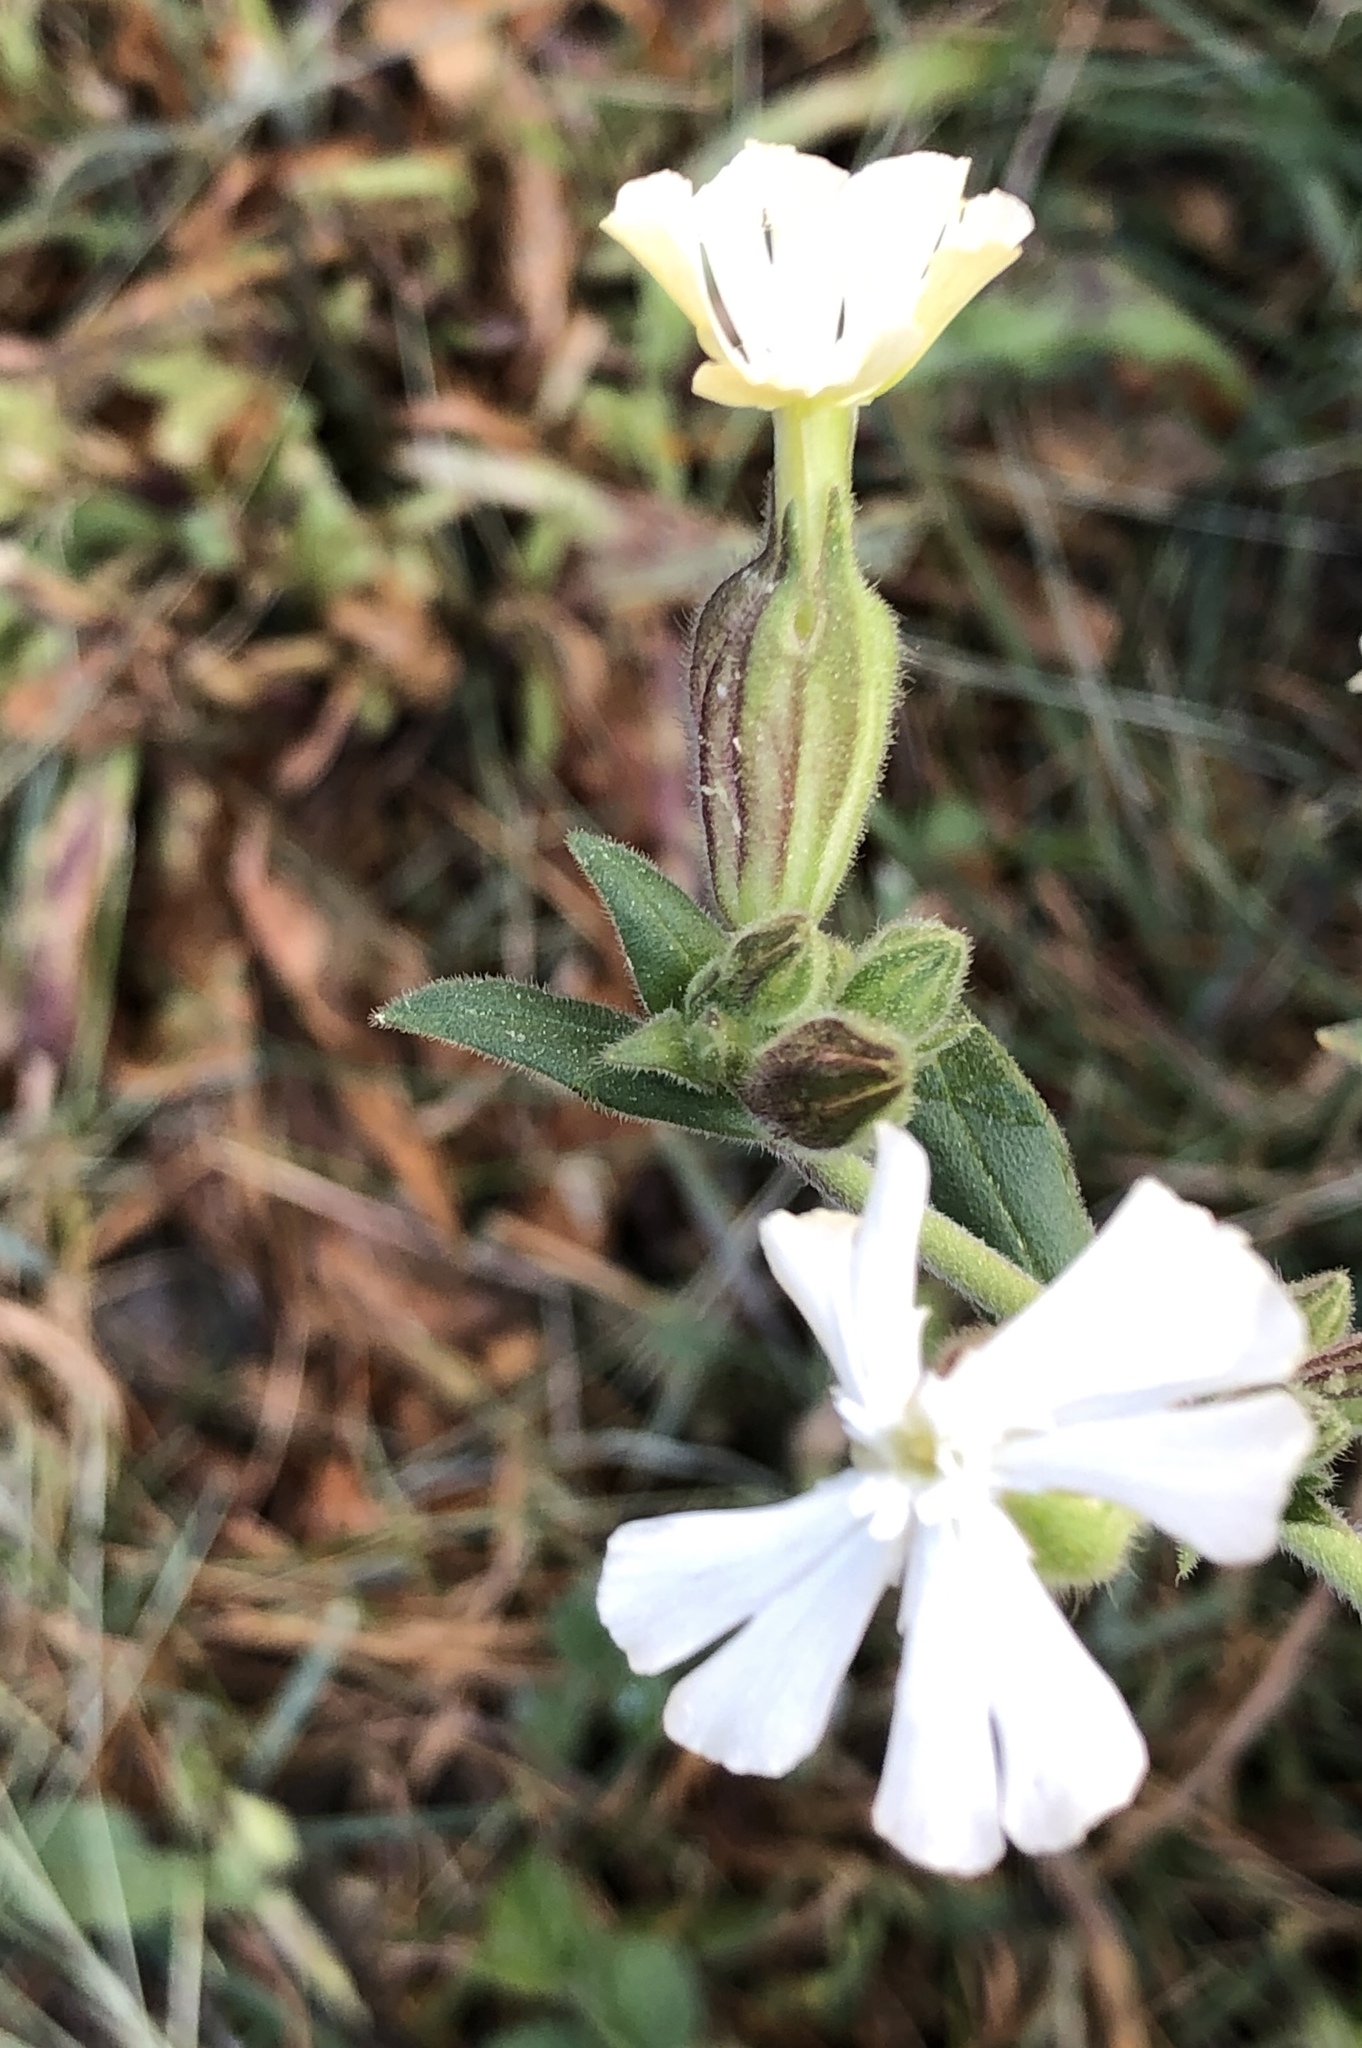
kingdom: Plantae
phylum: Tracheophyta
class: Magnoliopsida
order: Caryophyllales
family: Caryophyllaceae
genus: Silene
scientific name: Silene latifolia
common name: White campion
